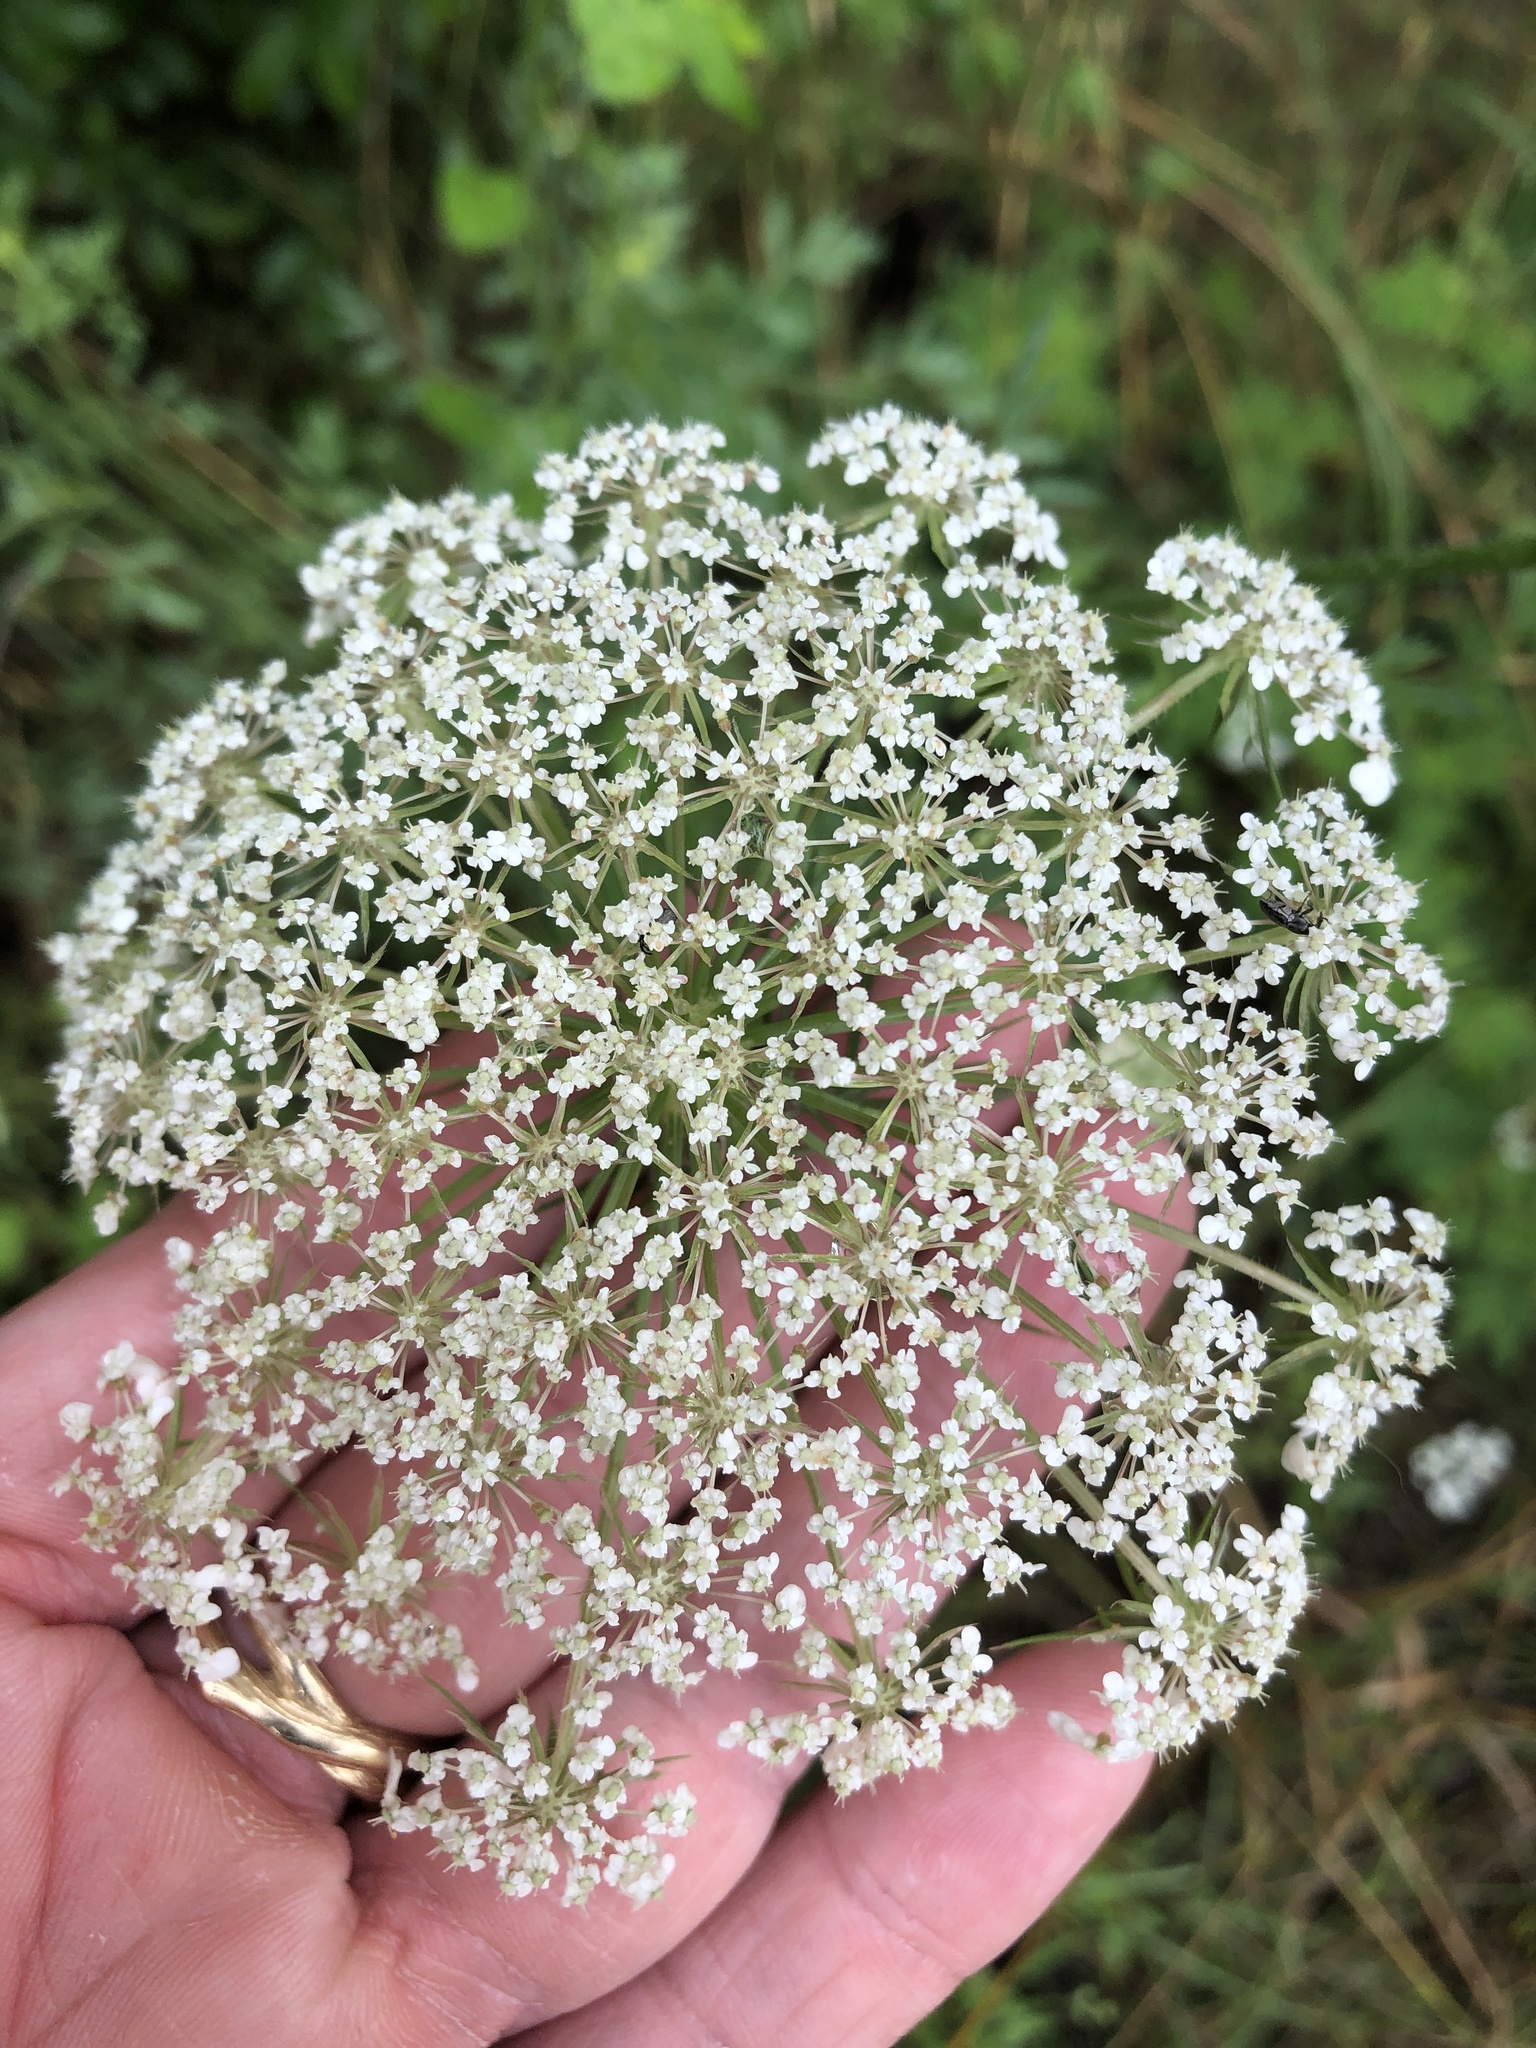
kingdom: Plantae
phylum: Tracheophyta
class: Magnoliopsida
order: Apiales
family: Apiaceae
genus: Daucus
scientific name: Daucus carota
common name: Wild carrot
